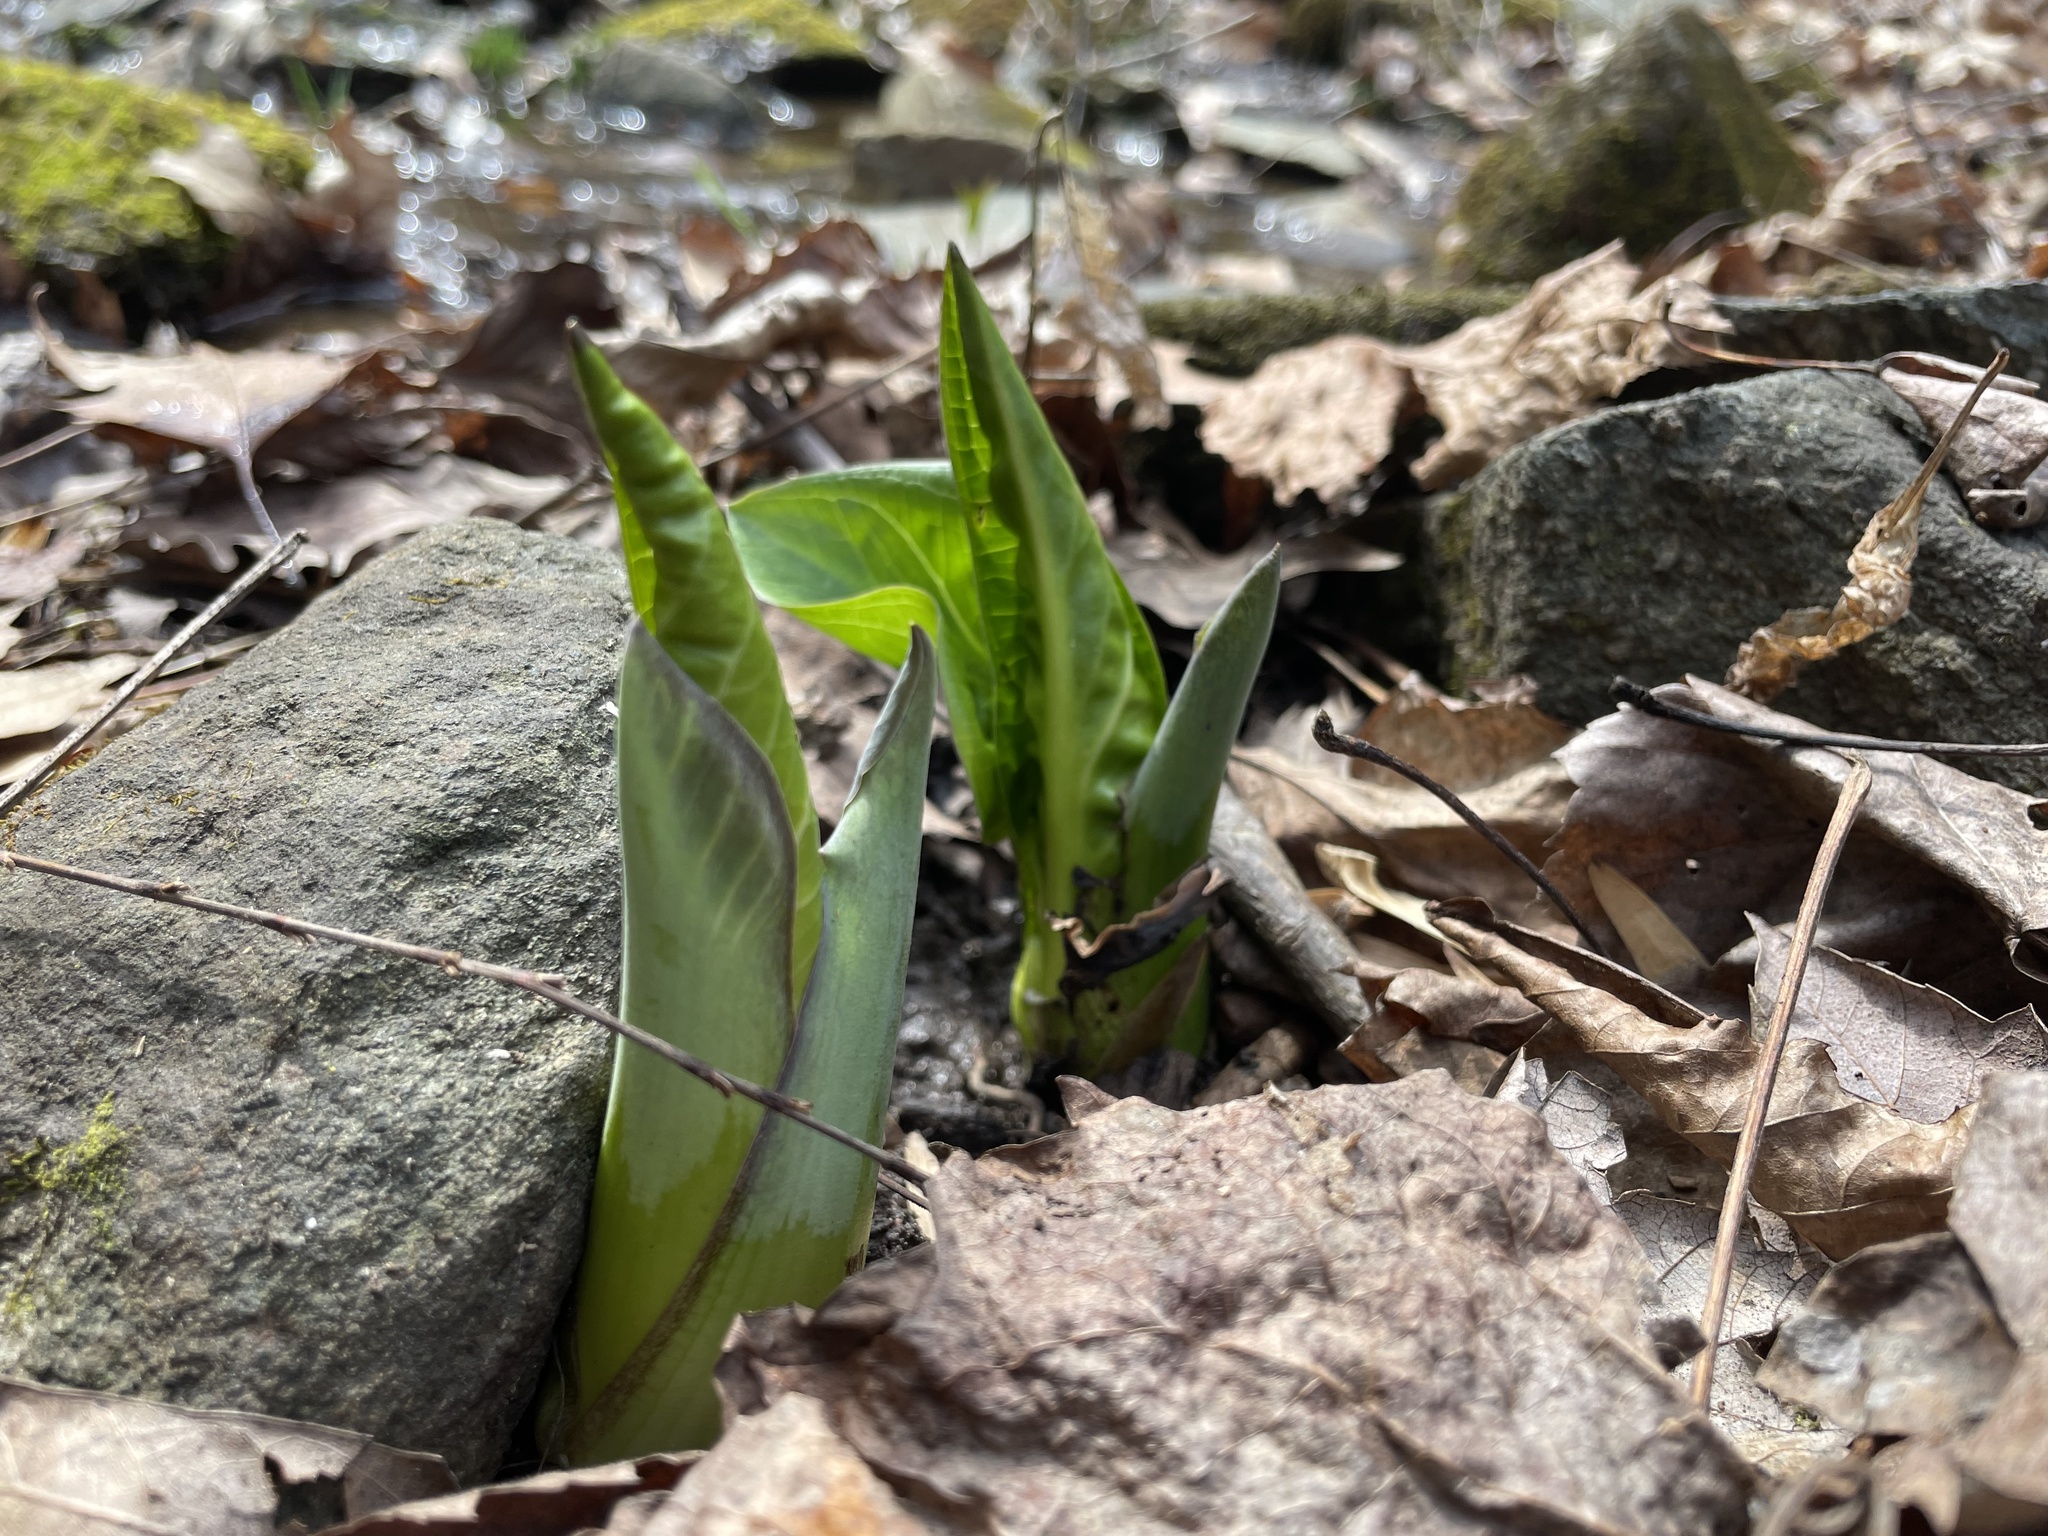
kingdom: Plantae
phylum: Tracheophyta
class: Liliopsida
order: Alismatales
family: Araceae
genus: Symplocarpus
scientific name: Symplocarpus foetidus
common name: Eastern skunk cabbage
